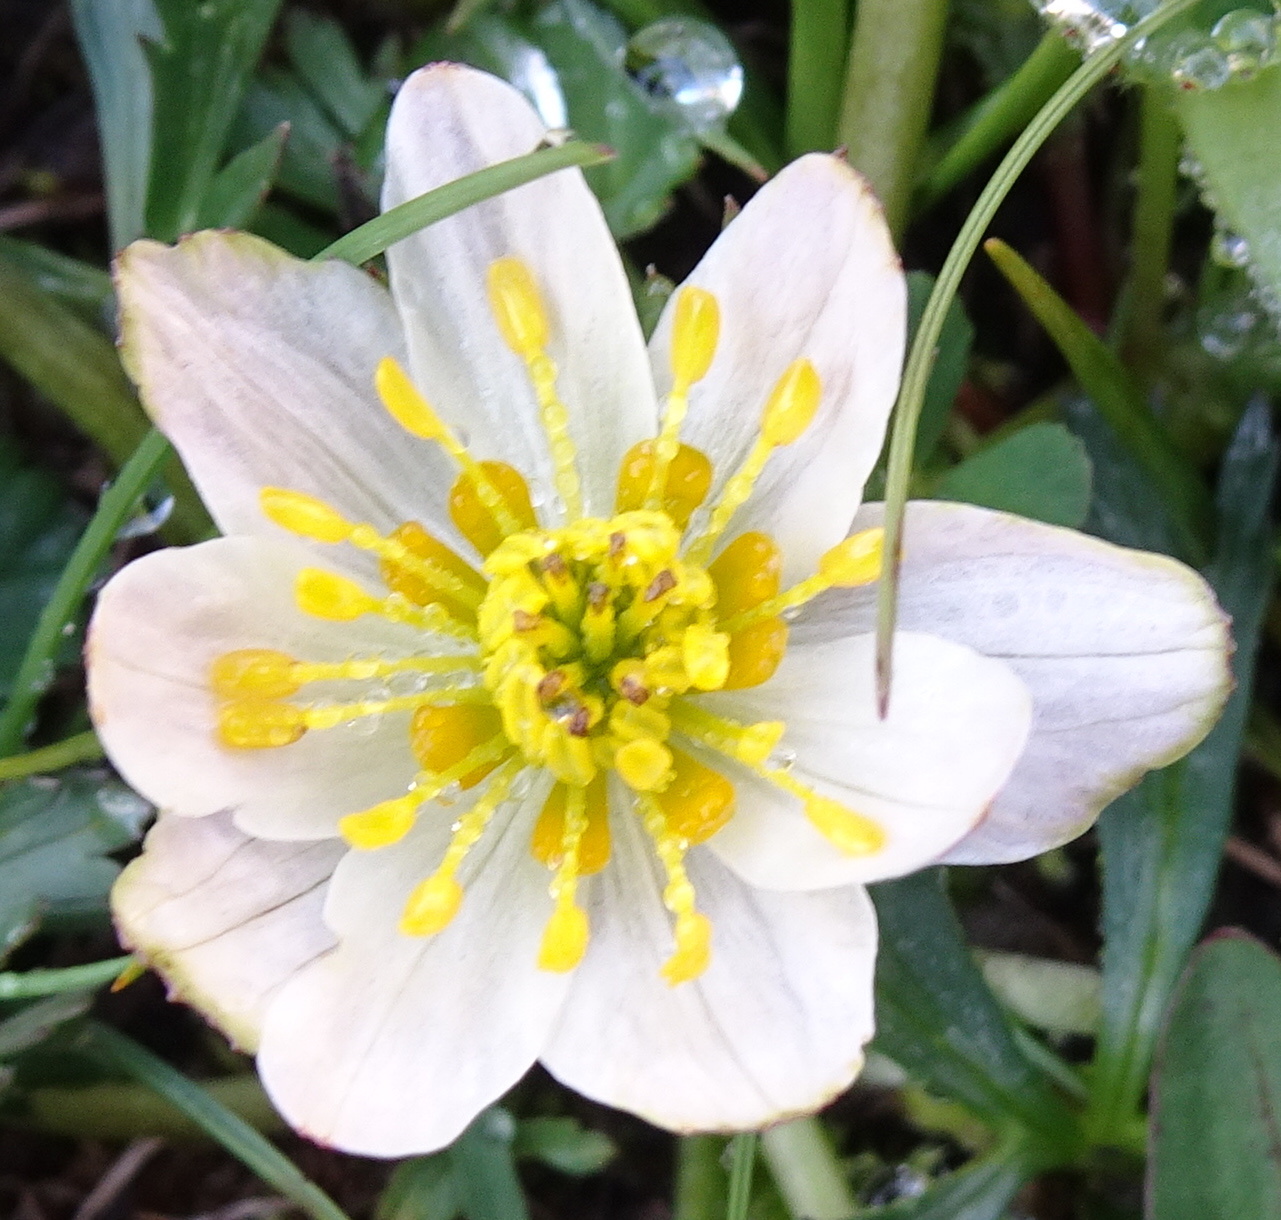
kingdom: Plantae
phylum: Tracheophyta
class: Magnoliopsida
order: Ranunculales
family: Ranunculaceae
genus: Trollius
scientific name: Trollius komarovii
